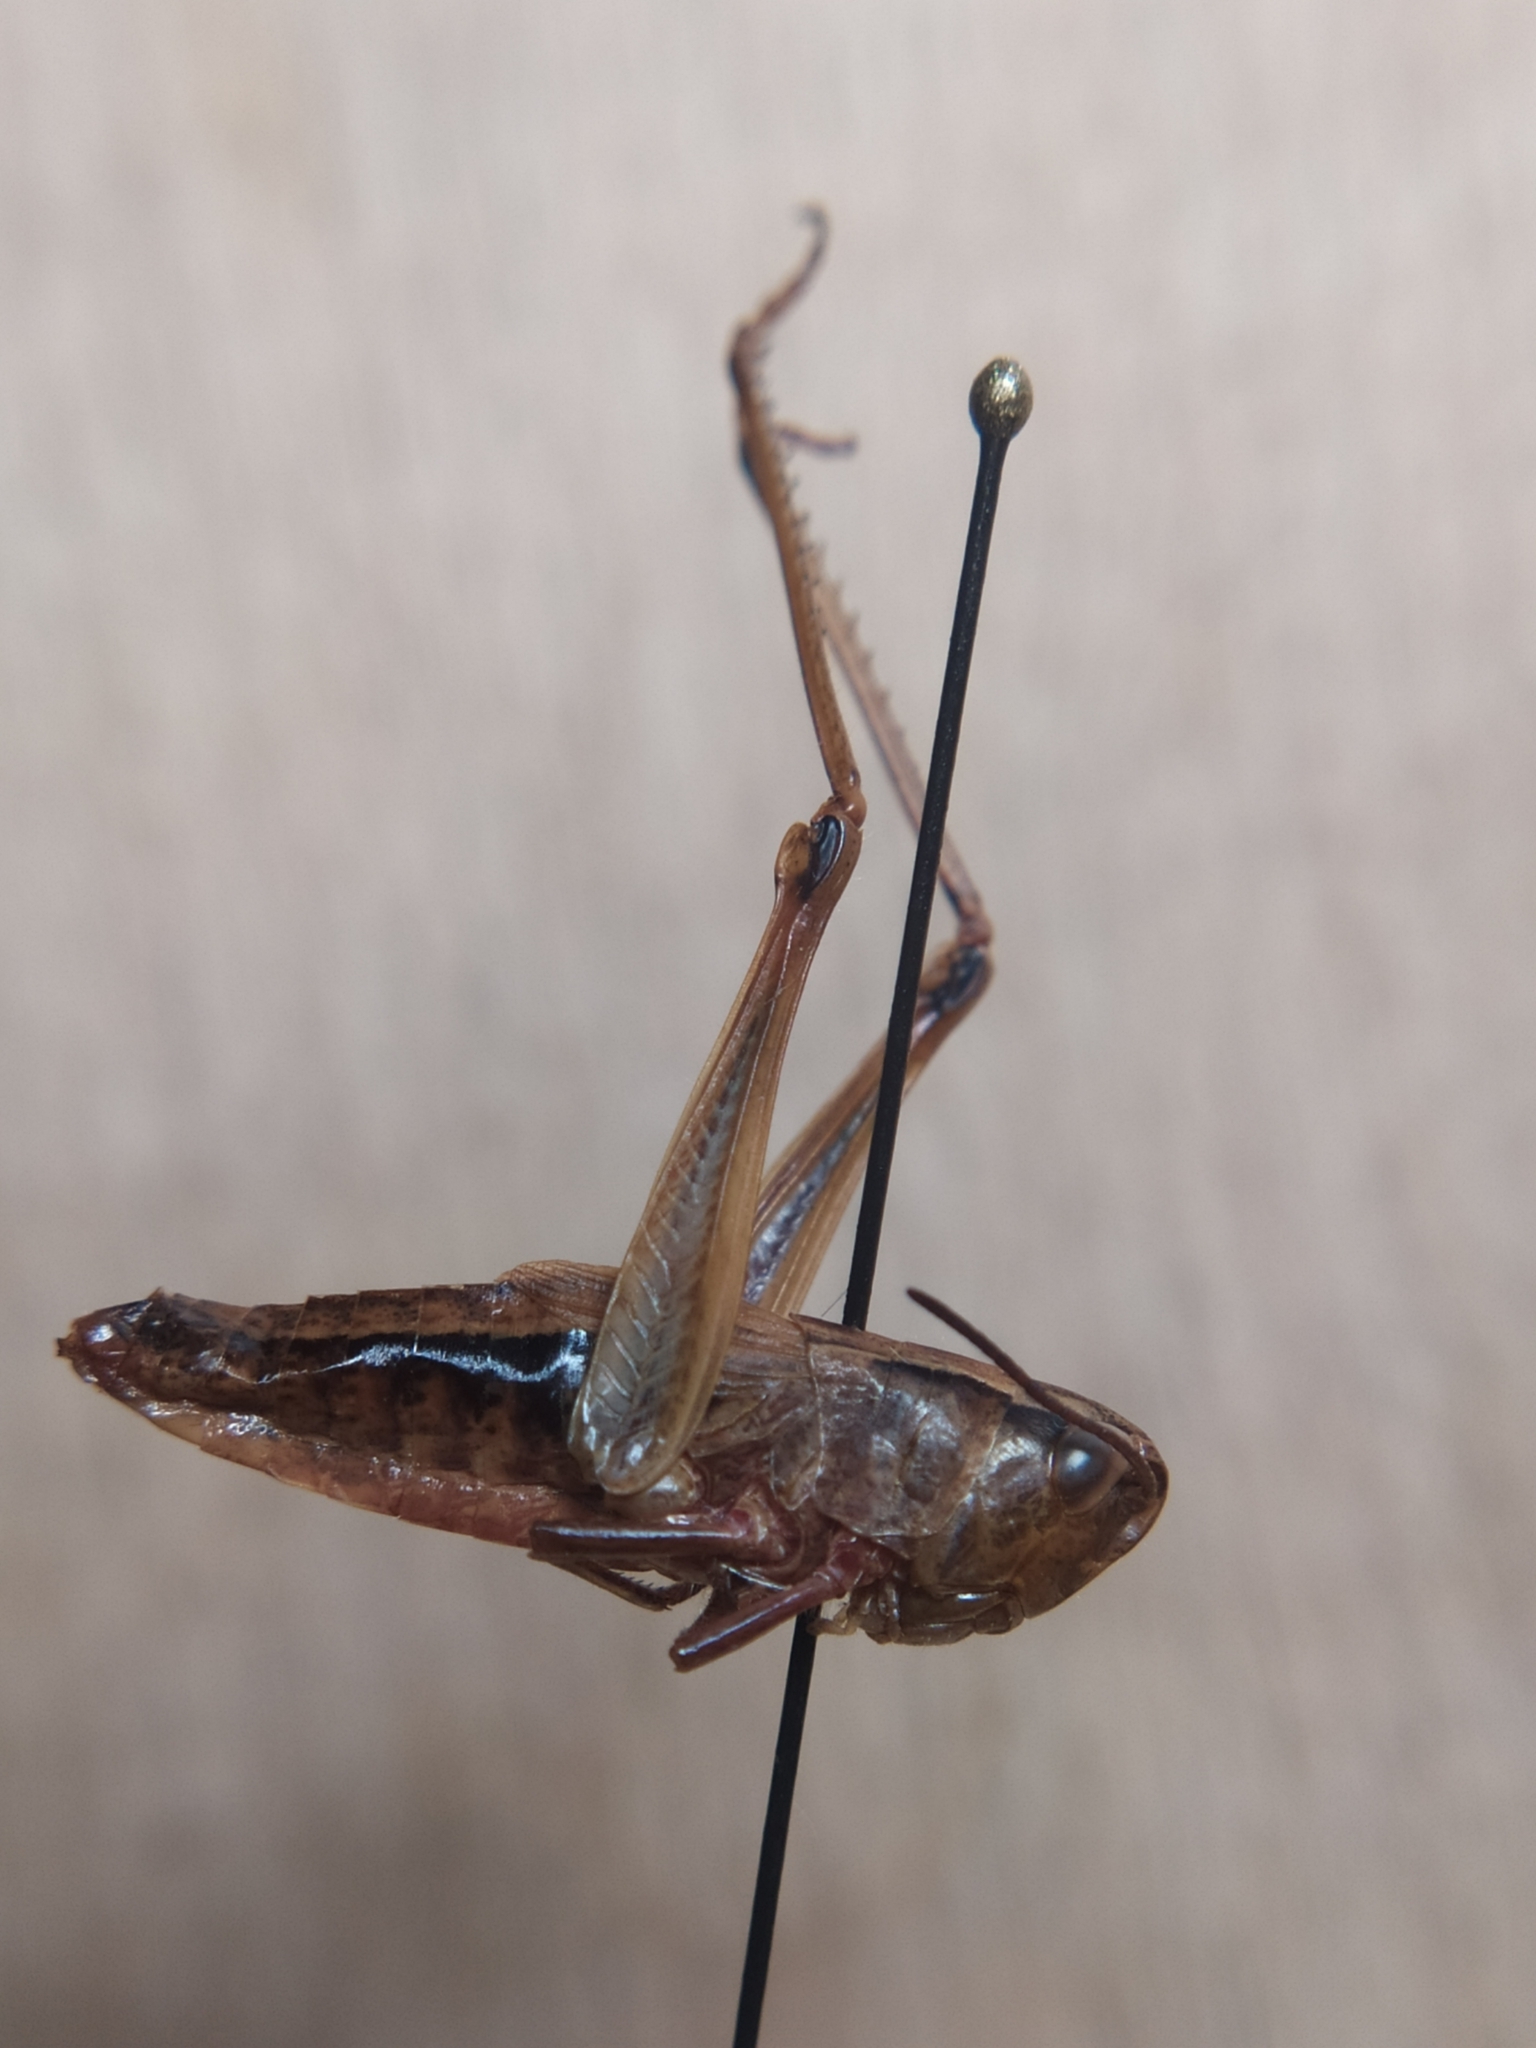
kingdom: Animalia
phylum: Arthropoda
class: Insecta
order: Orthoptera
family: Acrididae
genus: Pseudochorthippus
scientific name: Pseudochorthippus parallelus
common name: Meadow grasshopper
